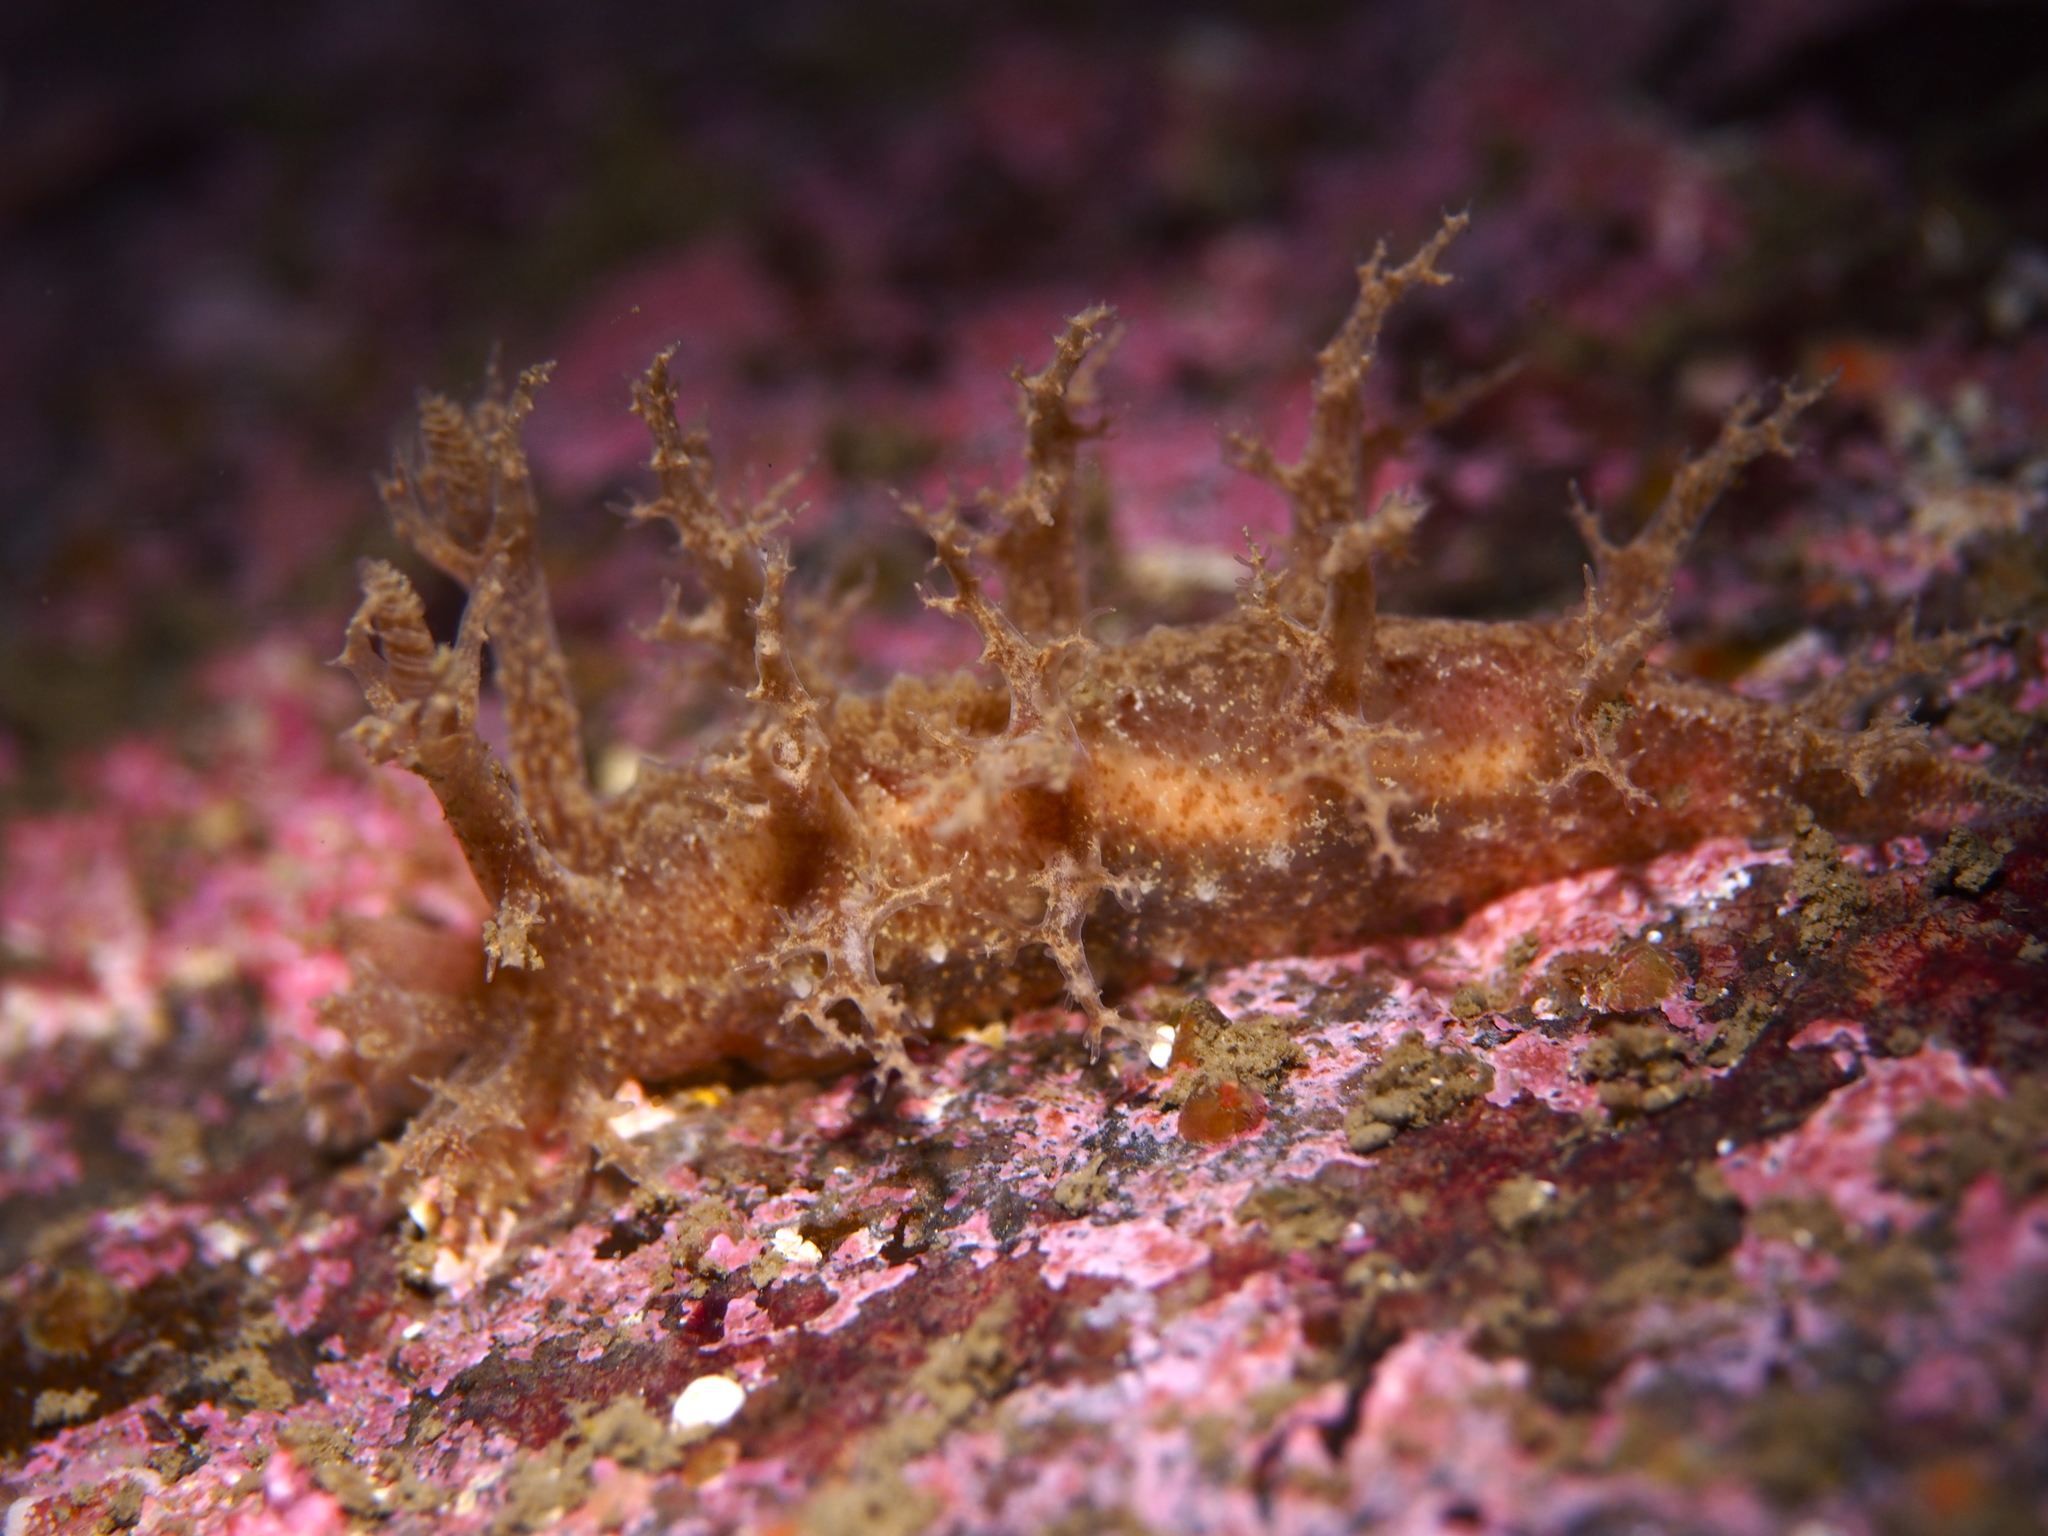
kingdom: Animalia
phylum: Mollusca
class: Gastropoda
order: Nudibranchia
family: Dendronotidae
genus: Dendronotus
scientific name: Dendronotus frondosus
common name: Bushy-backed nudibranch
